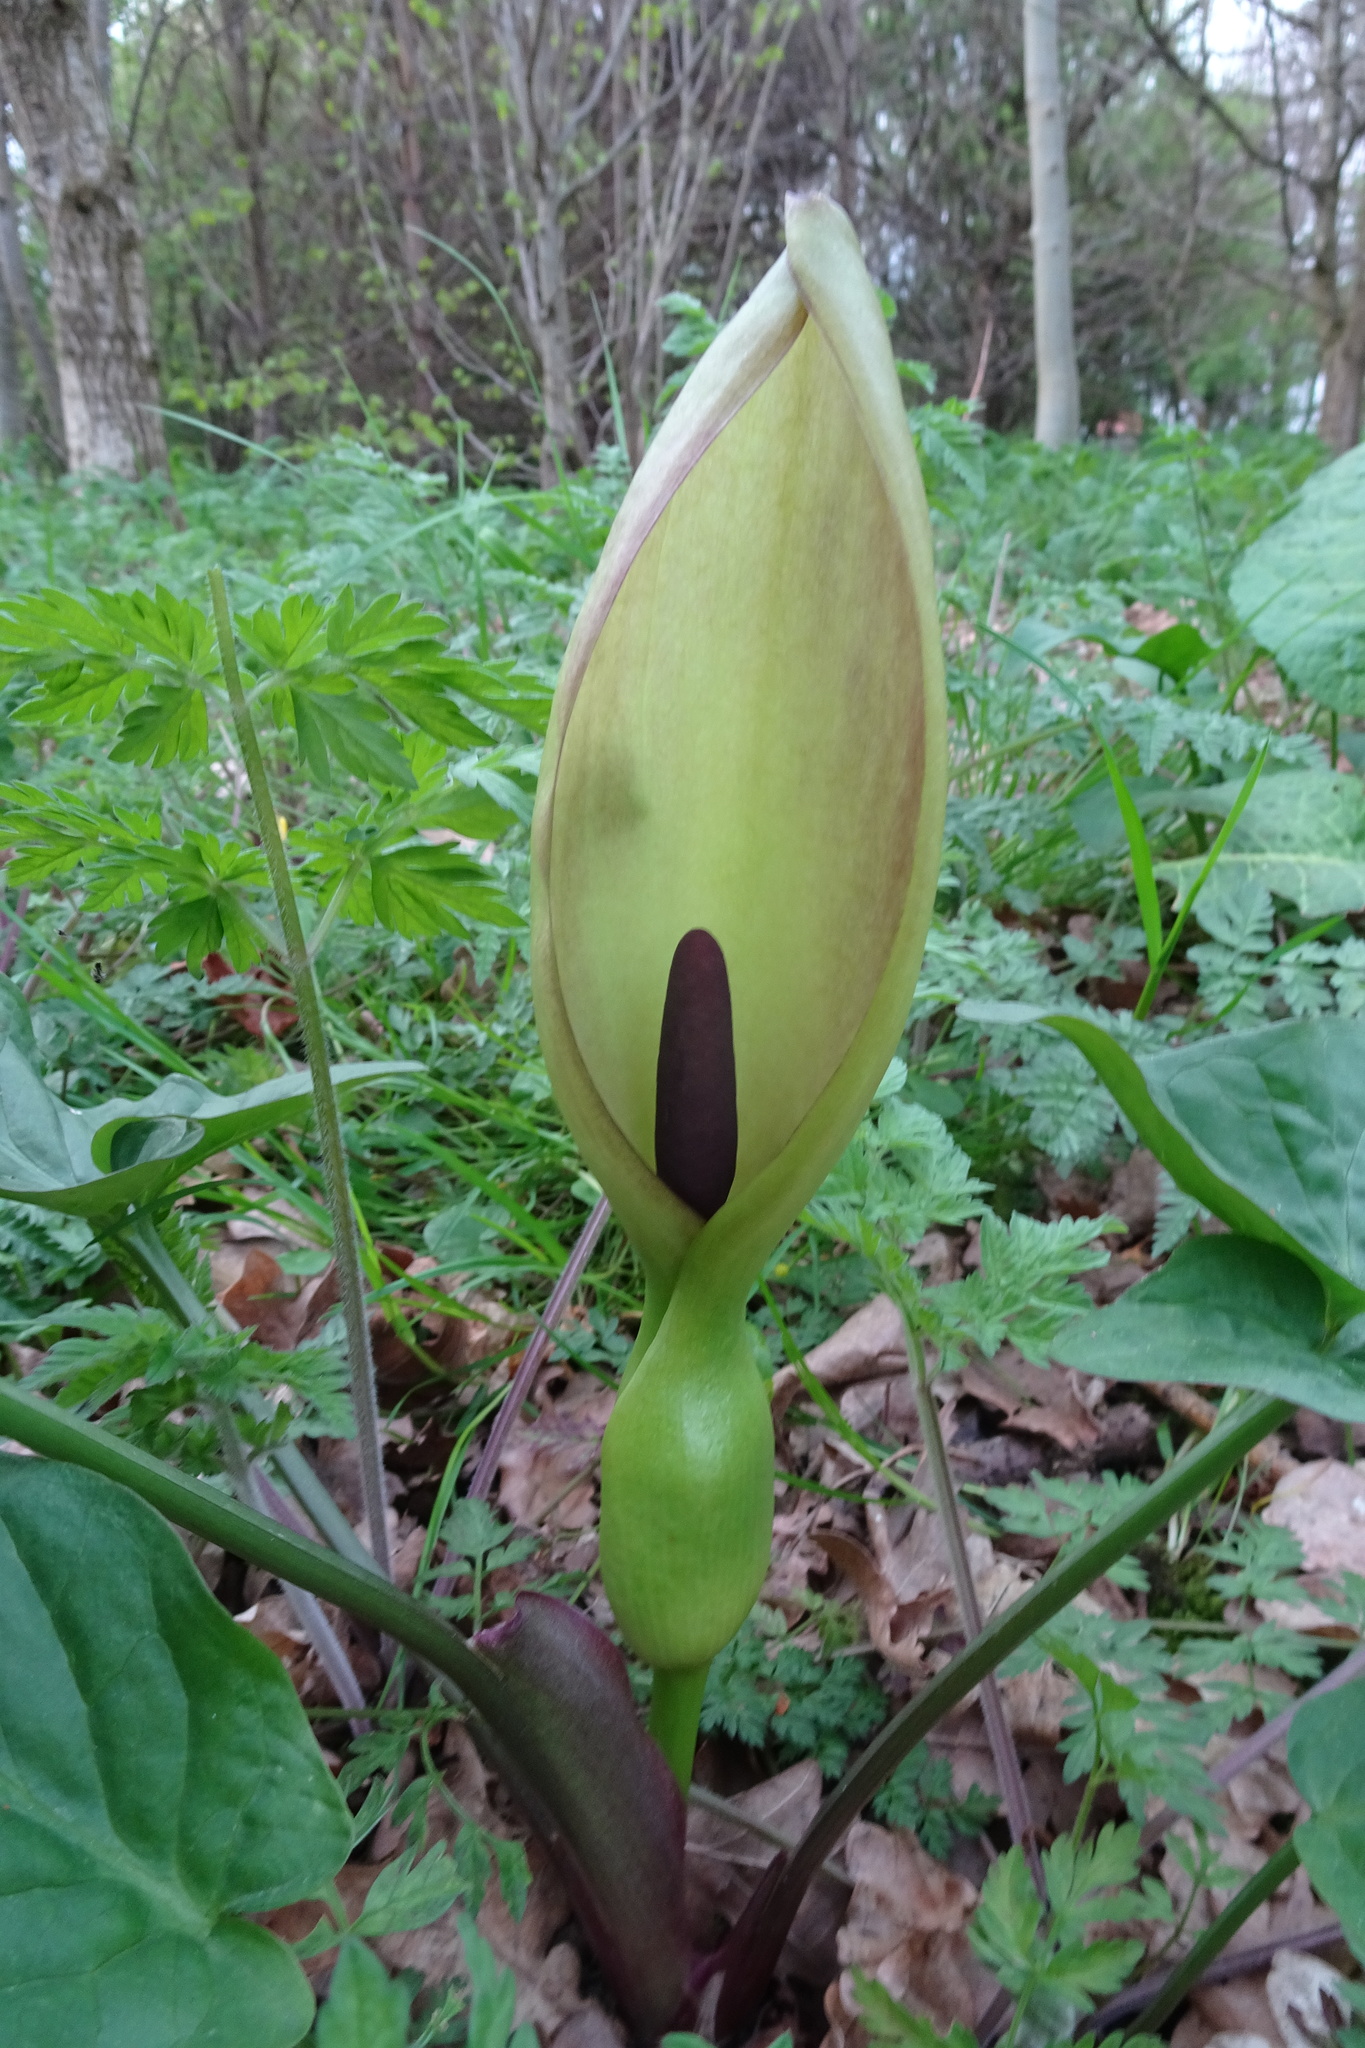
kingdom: Plantae
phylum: Tracheophyta
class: Liliopsida
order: Alismatales
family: Araceae
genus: Arum
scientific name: Arum maculatum
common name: Lords-and-ladies
